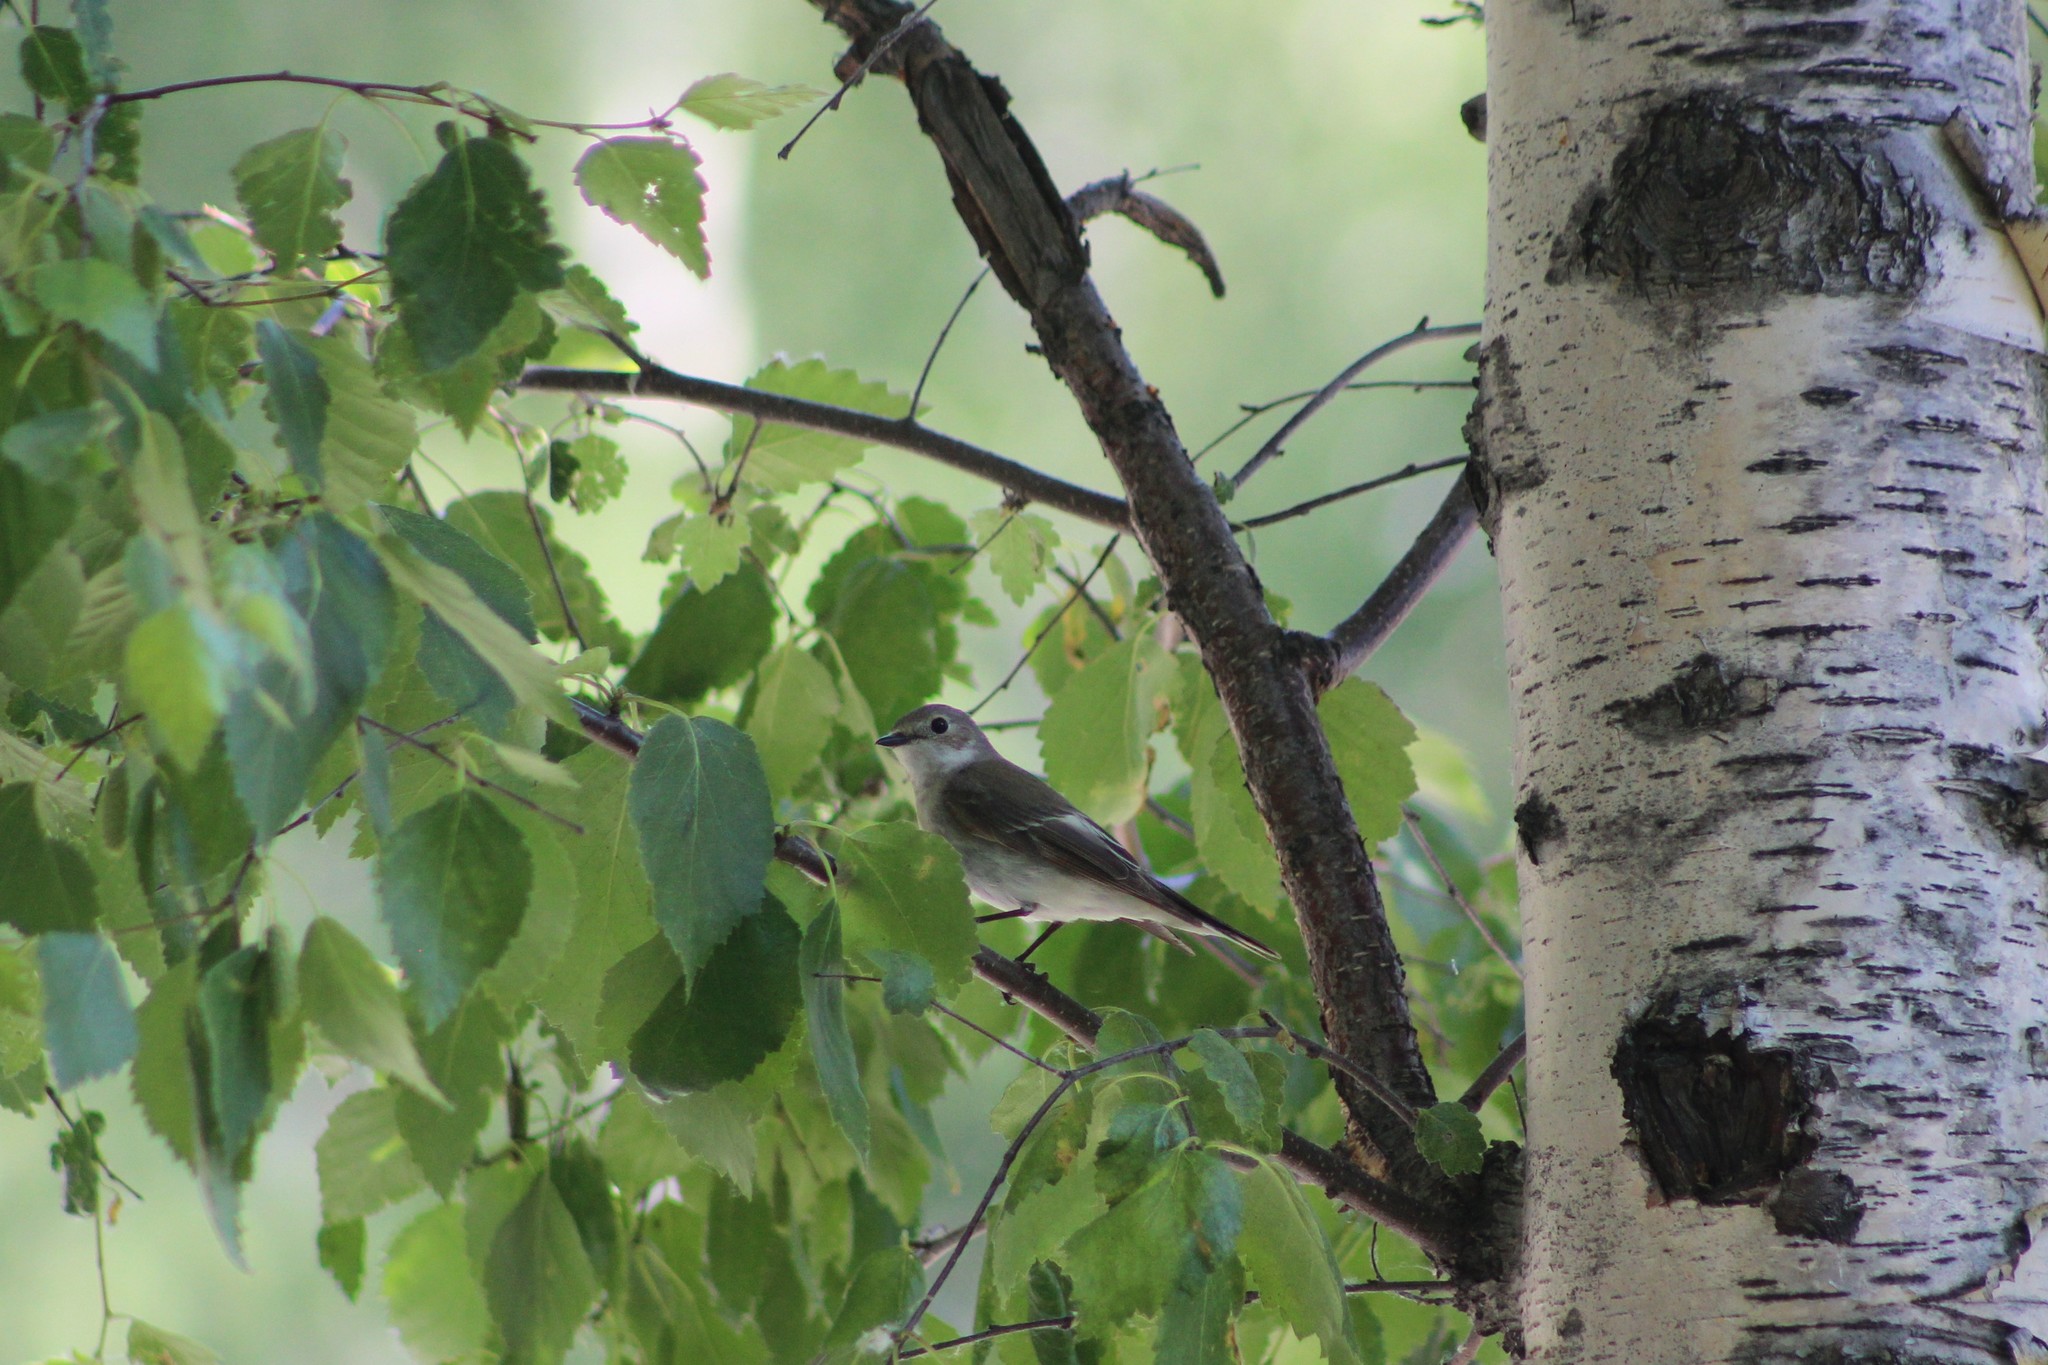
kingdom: Animalia
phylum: Chordata
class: Aves
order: Passeriformes
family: Muscicapidae
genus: Ficedula
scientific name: Ficedula hypoleuca
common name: European pied flycatcher
